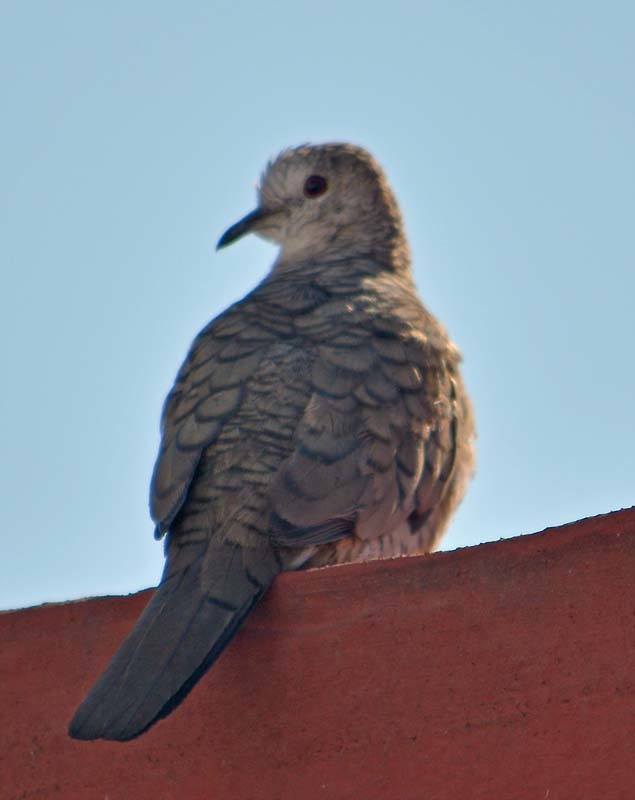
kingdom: Animalia
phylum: Chordata
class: Aves
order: Columbiformes
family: Columbidae
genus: Columbina
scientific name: Columbina inca
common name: Inca dove
